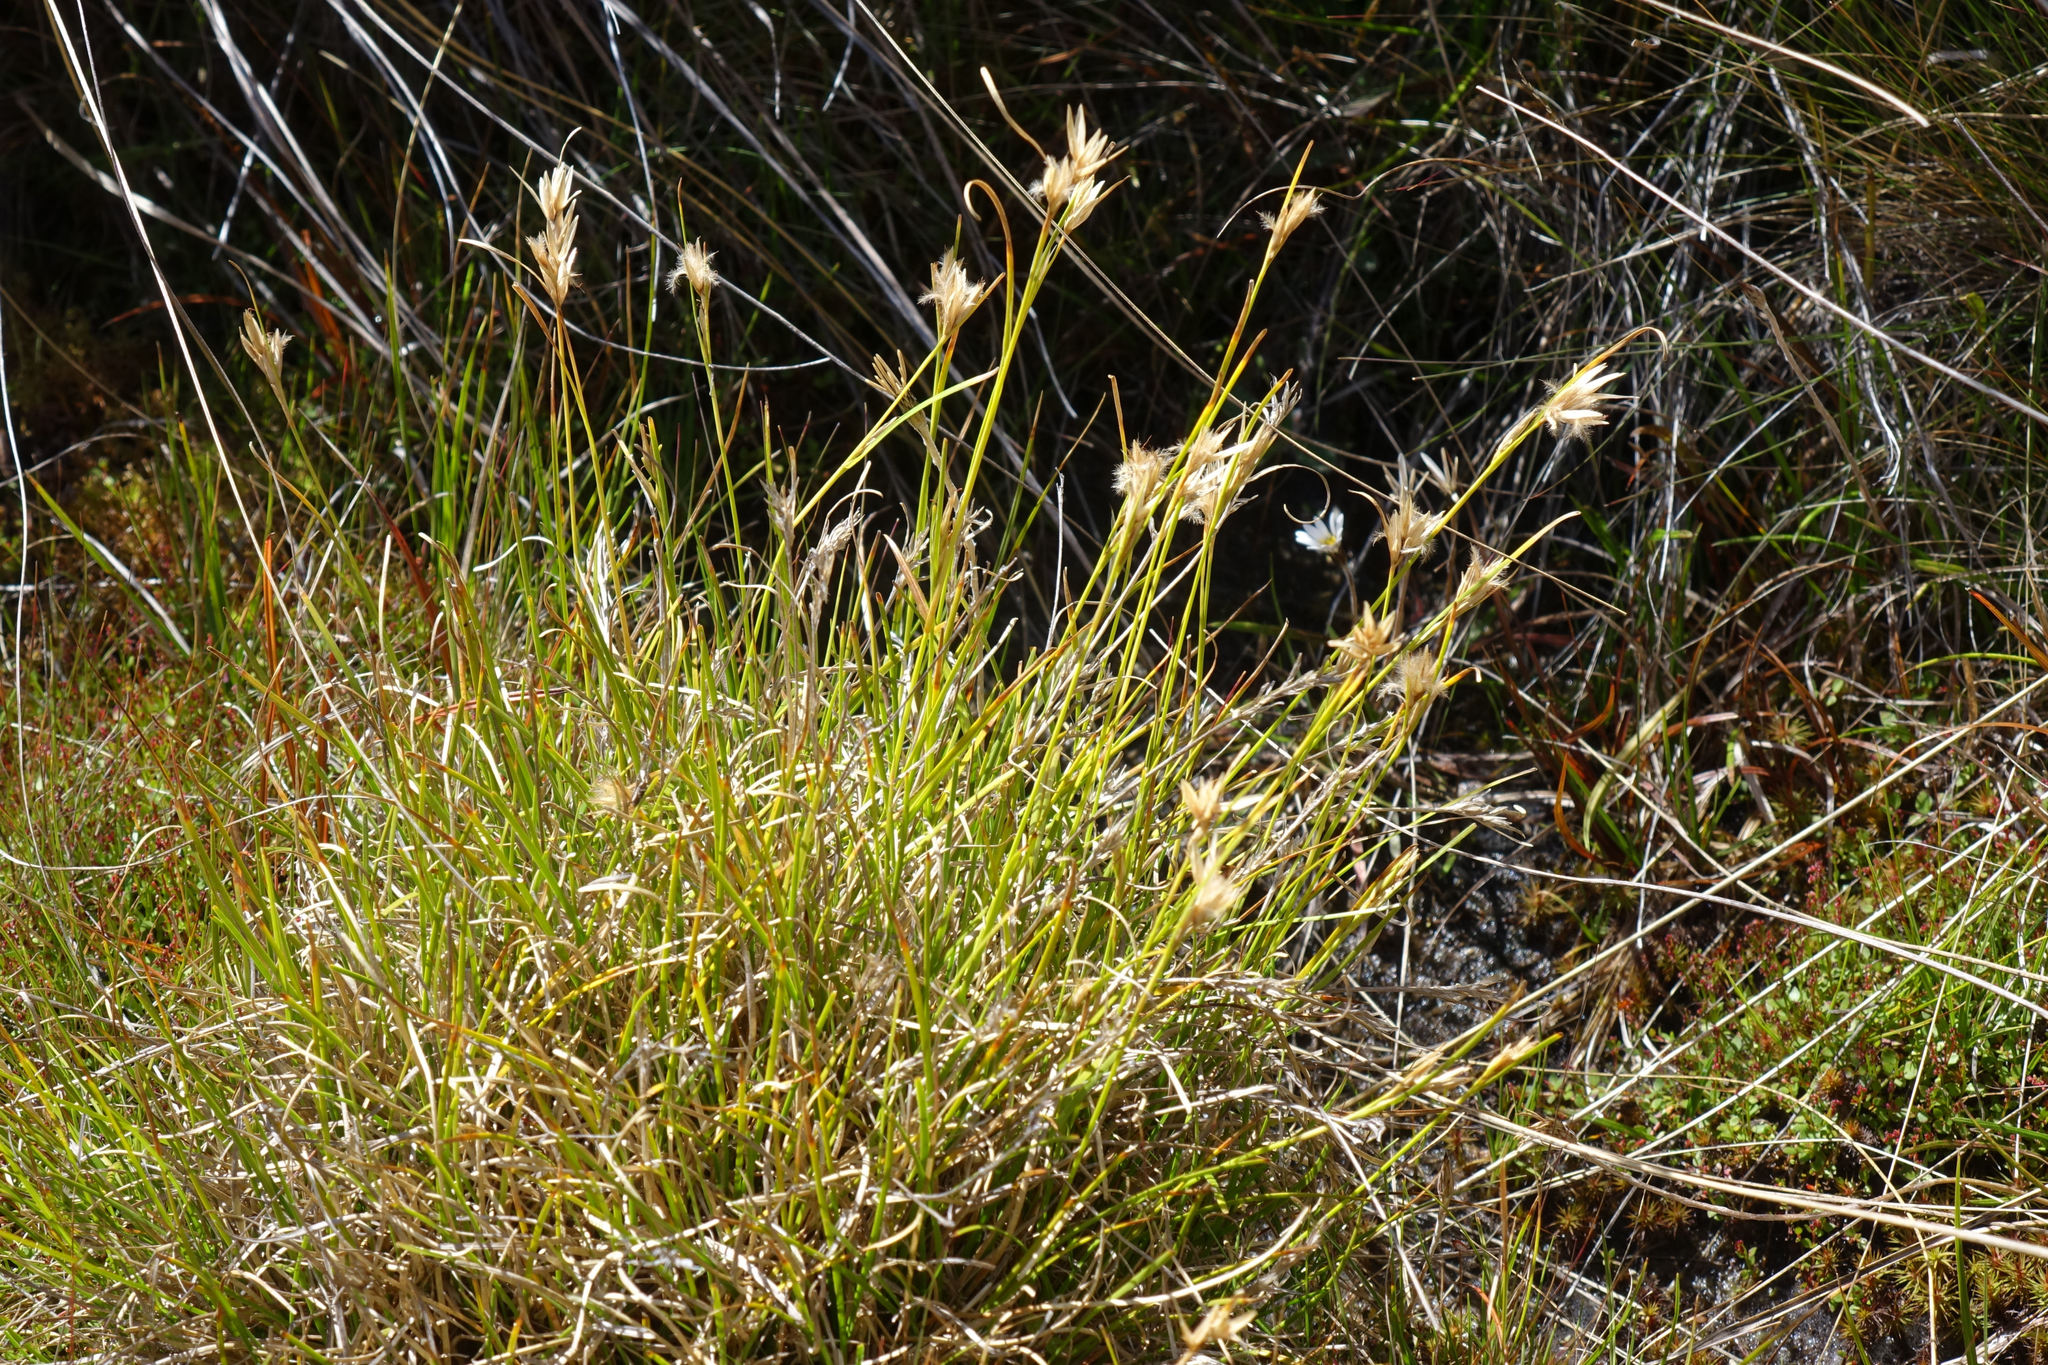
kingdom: Plantae
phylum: Tracheophyta
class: Liliopsida
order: Poales
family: Cyperaceae
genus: Carpha
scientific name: Carpha alpina
